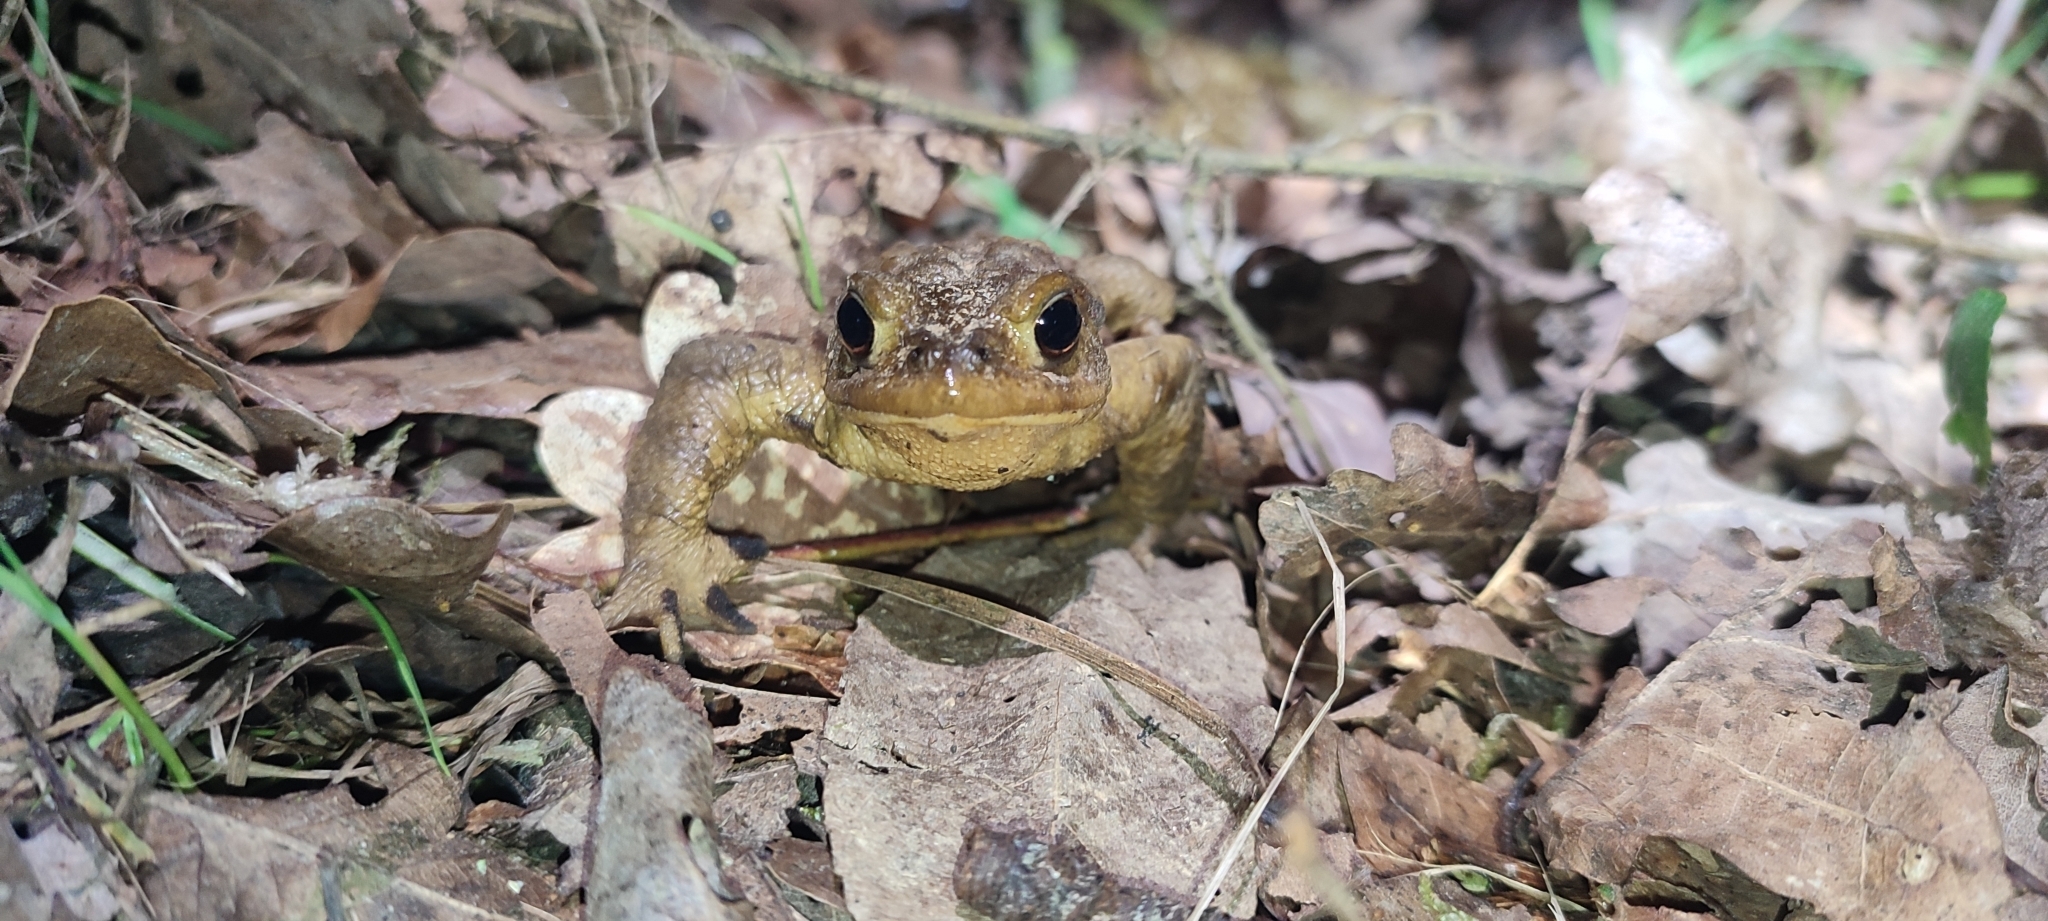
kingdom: Animalia
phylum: Chordata
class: Amphibia
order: Anura
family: Bufonidae
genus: Bufo
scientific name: Bufo spinosus
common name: Western common toad
